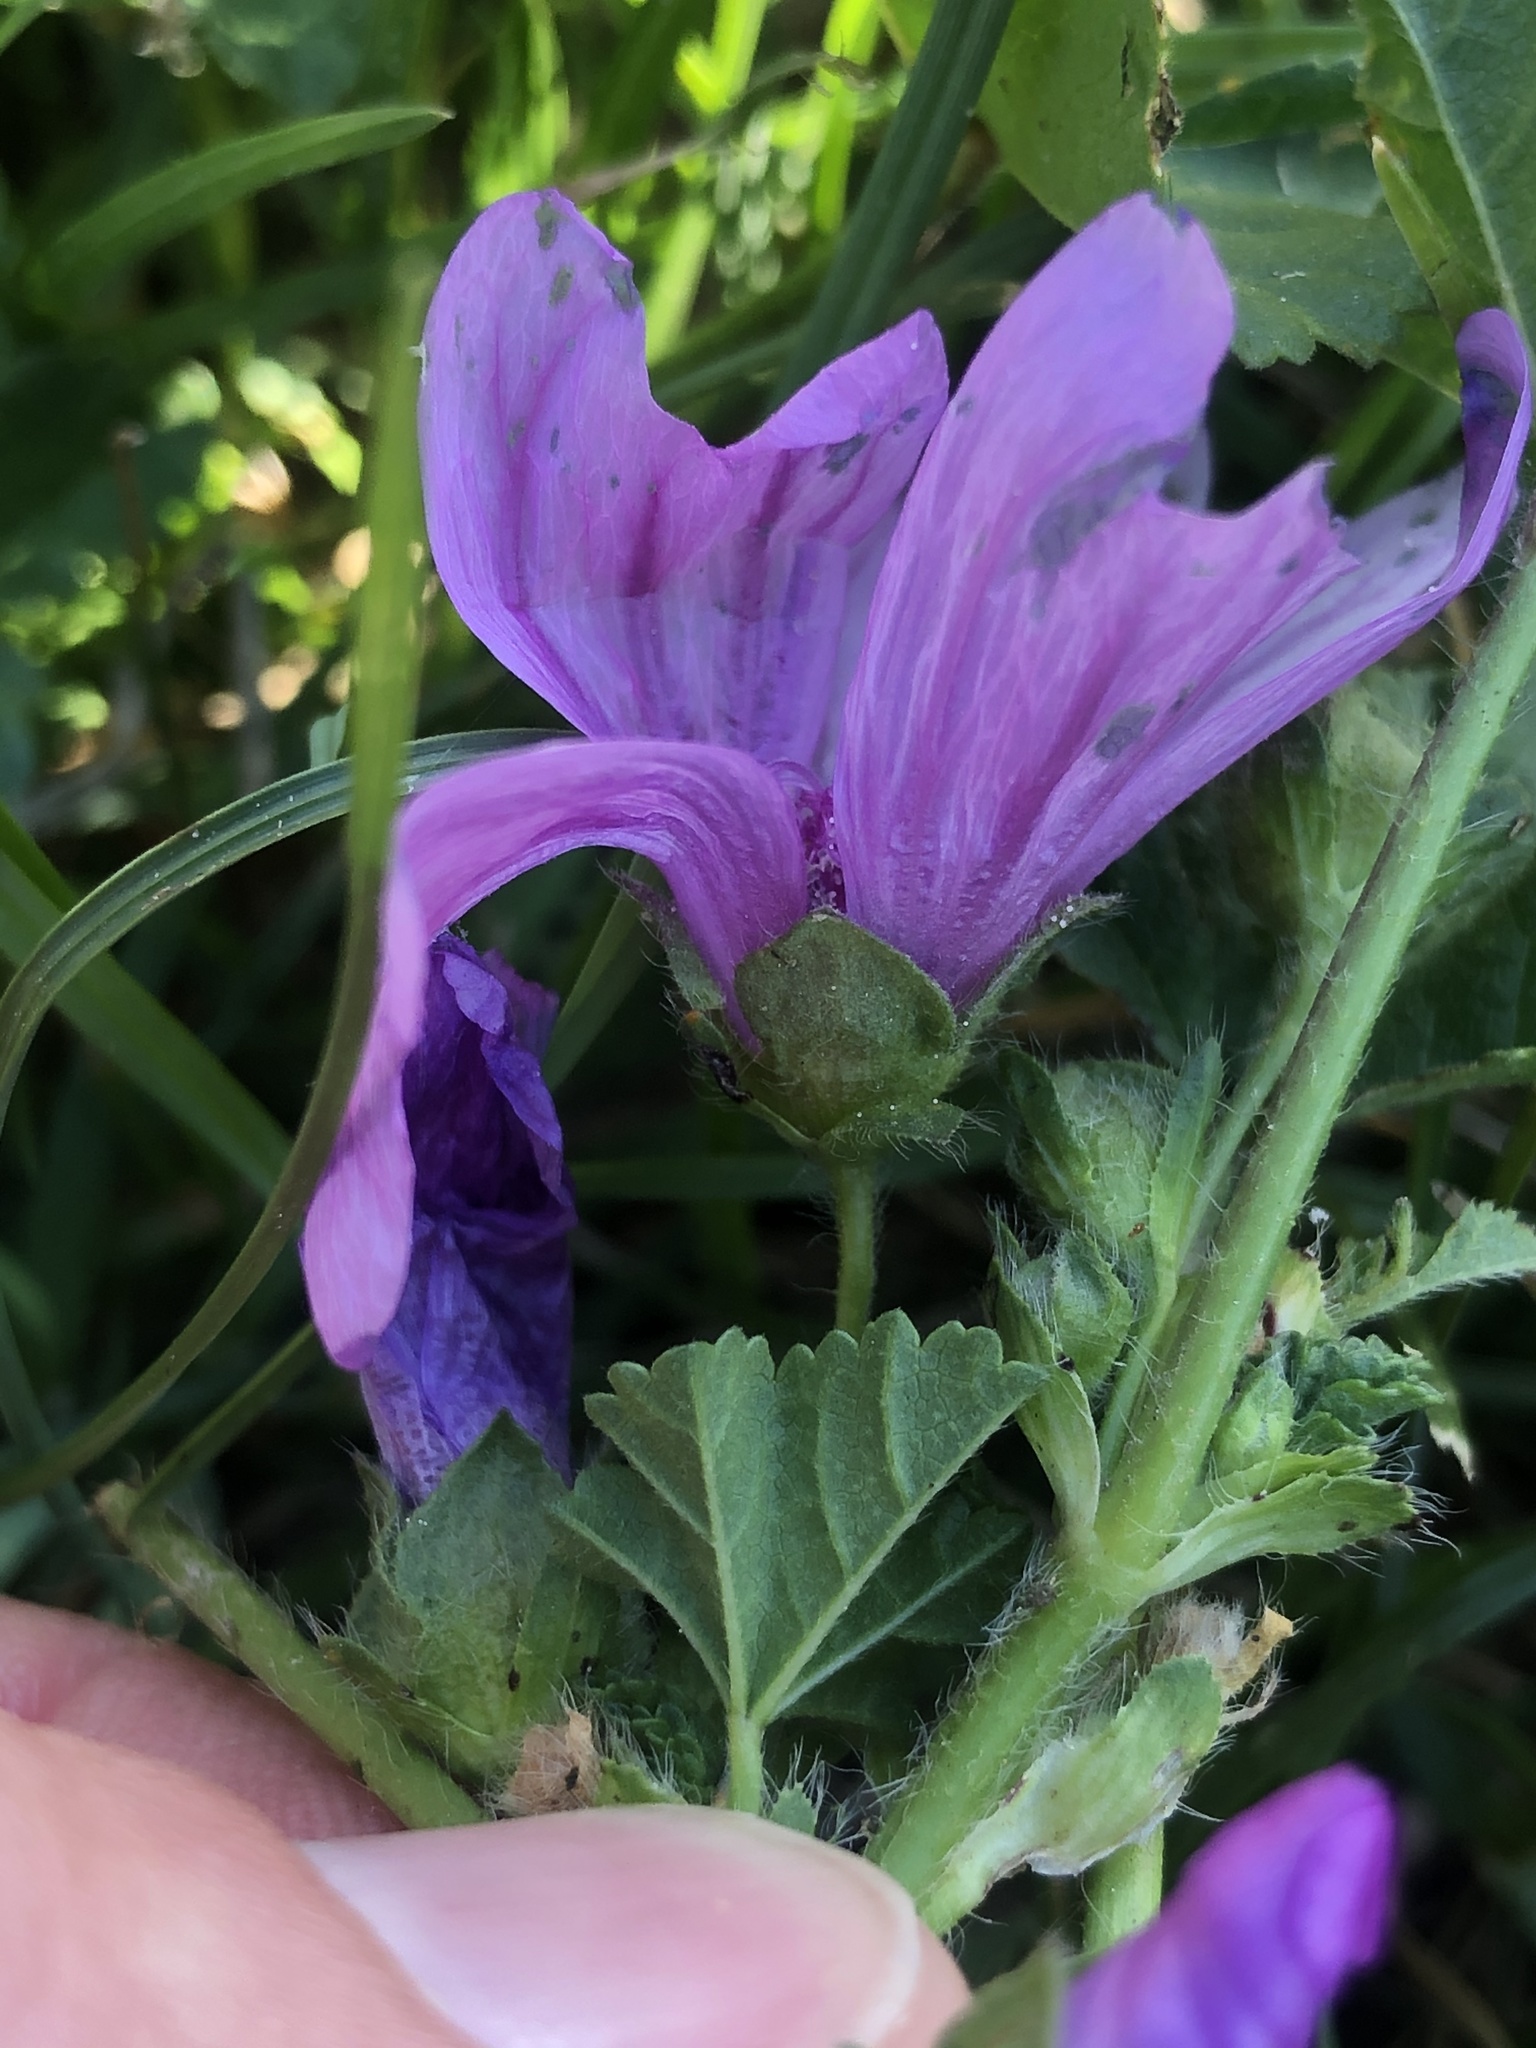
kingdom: Plantae
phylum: Tracheophyta
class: Magnoliopsida
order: Malvales
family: Malvaceae
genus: Malva
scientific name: Malva sylvestris
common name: Common mallow
